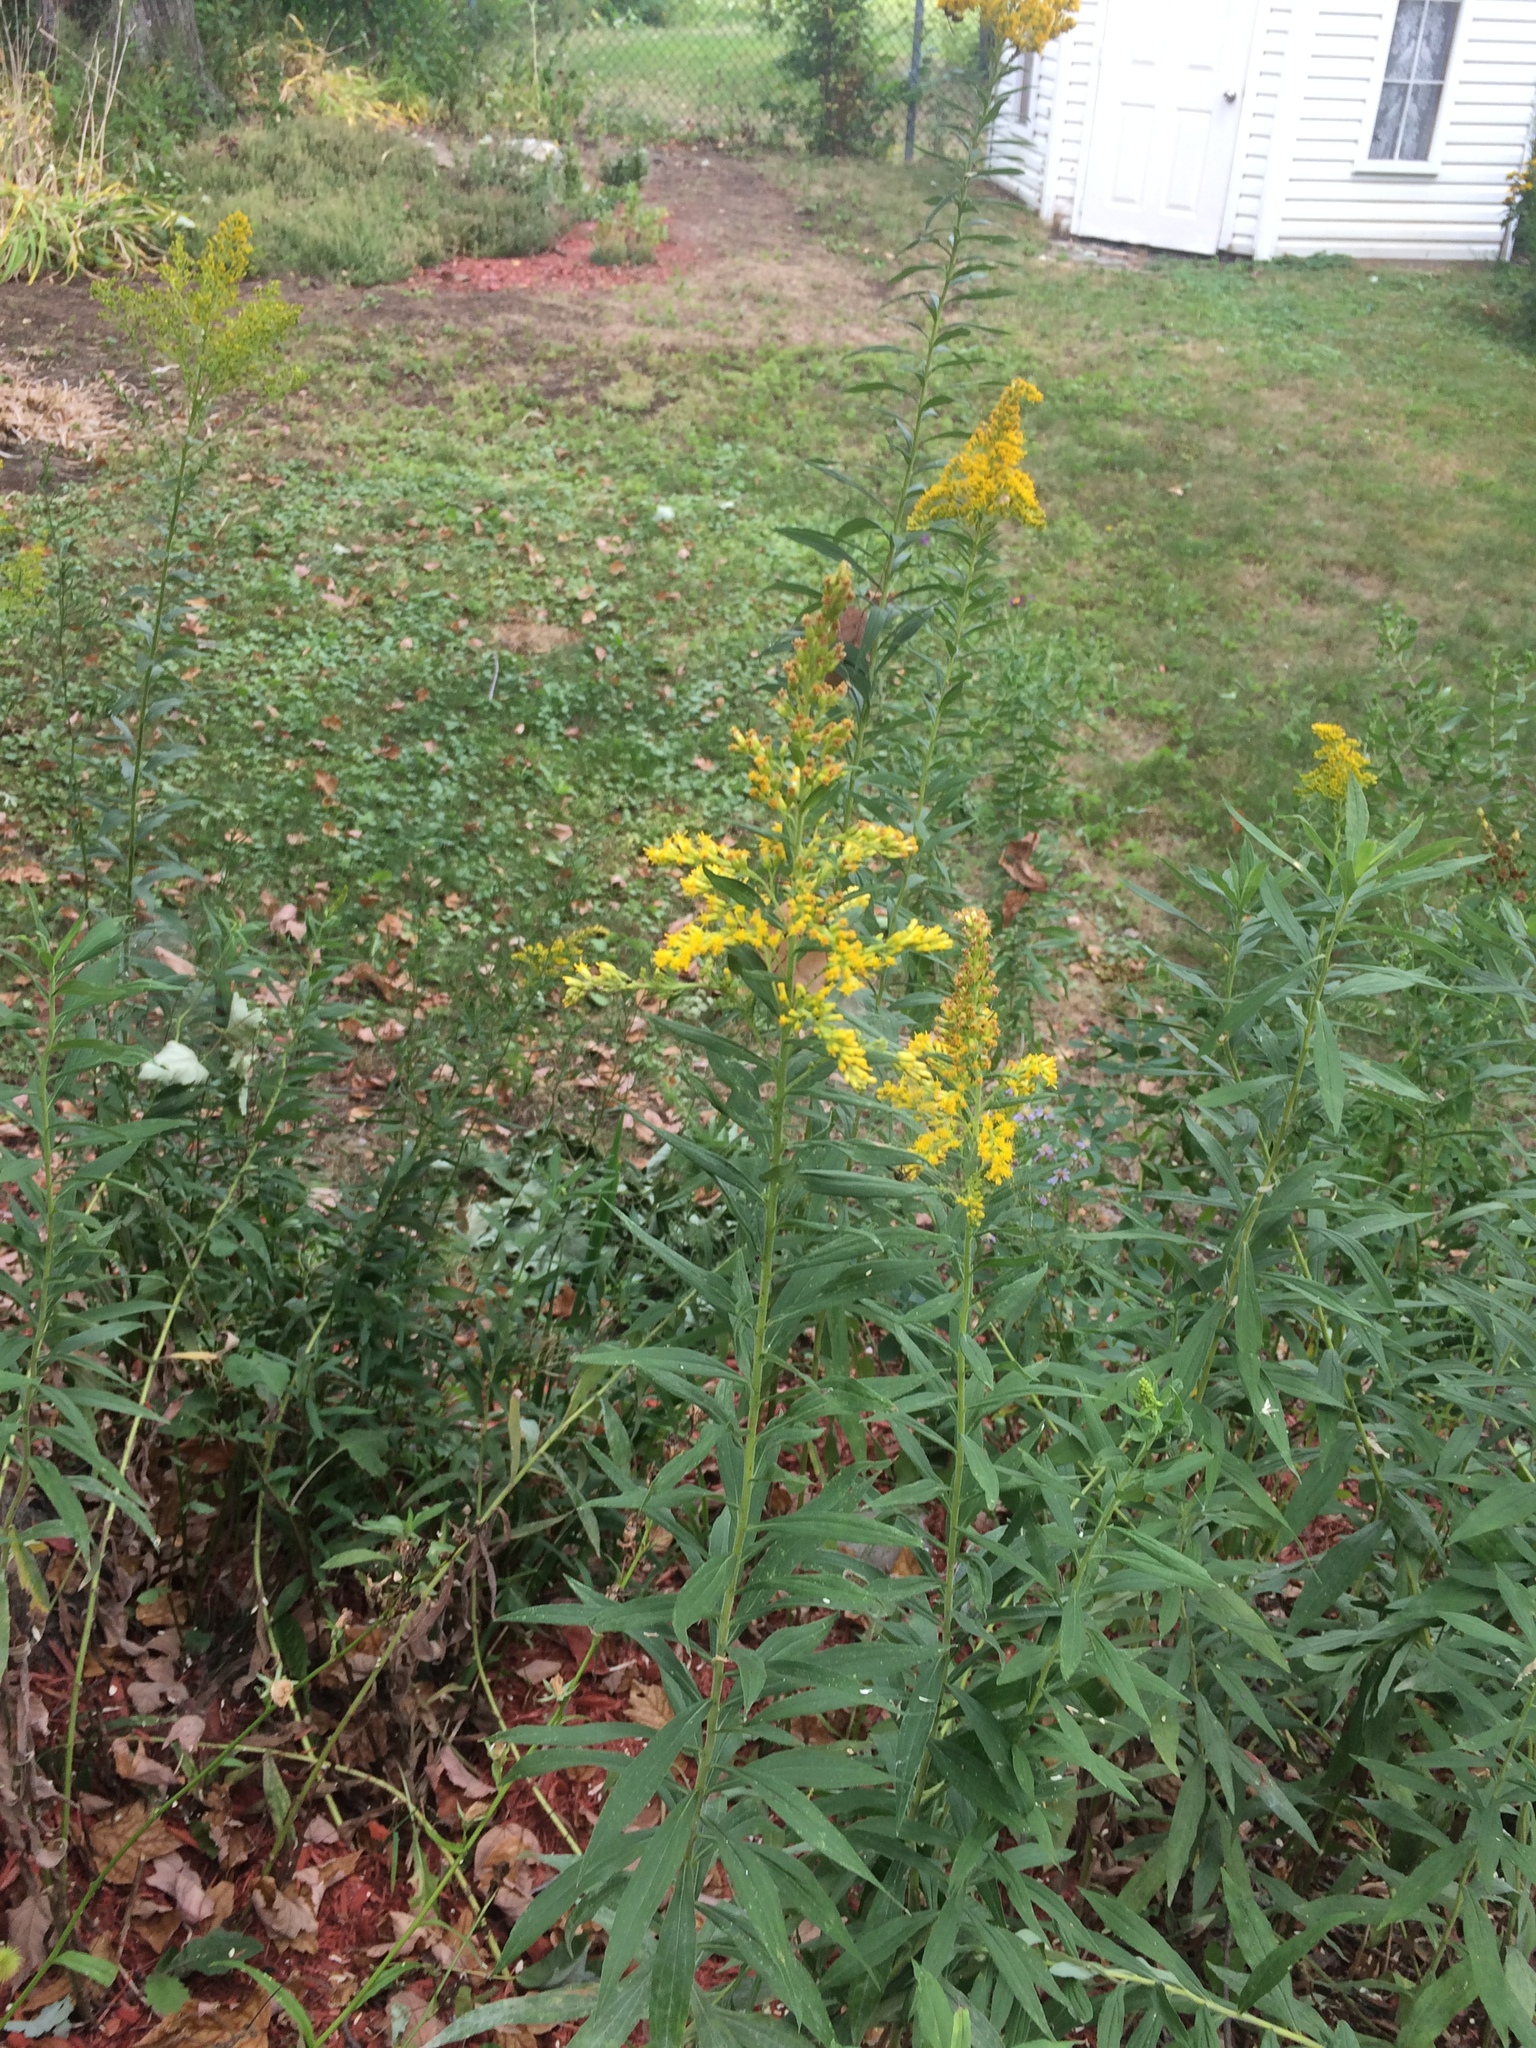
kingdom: Plantae
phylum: Tracheophyta
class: Magnoliopsida
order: Asterales
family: Asteraceae
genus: Solidago
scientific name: Solidago altissima
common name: Late goldenrod
